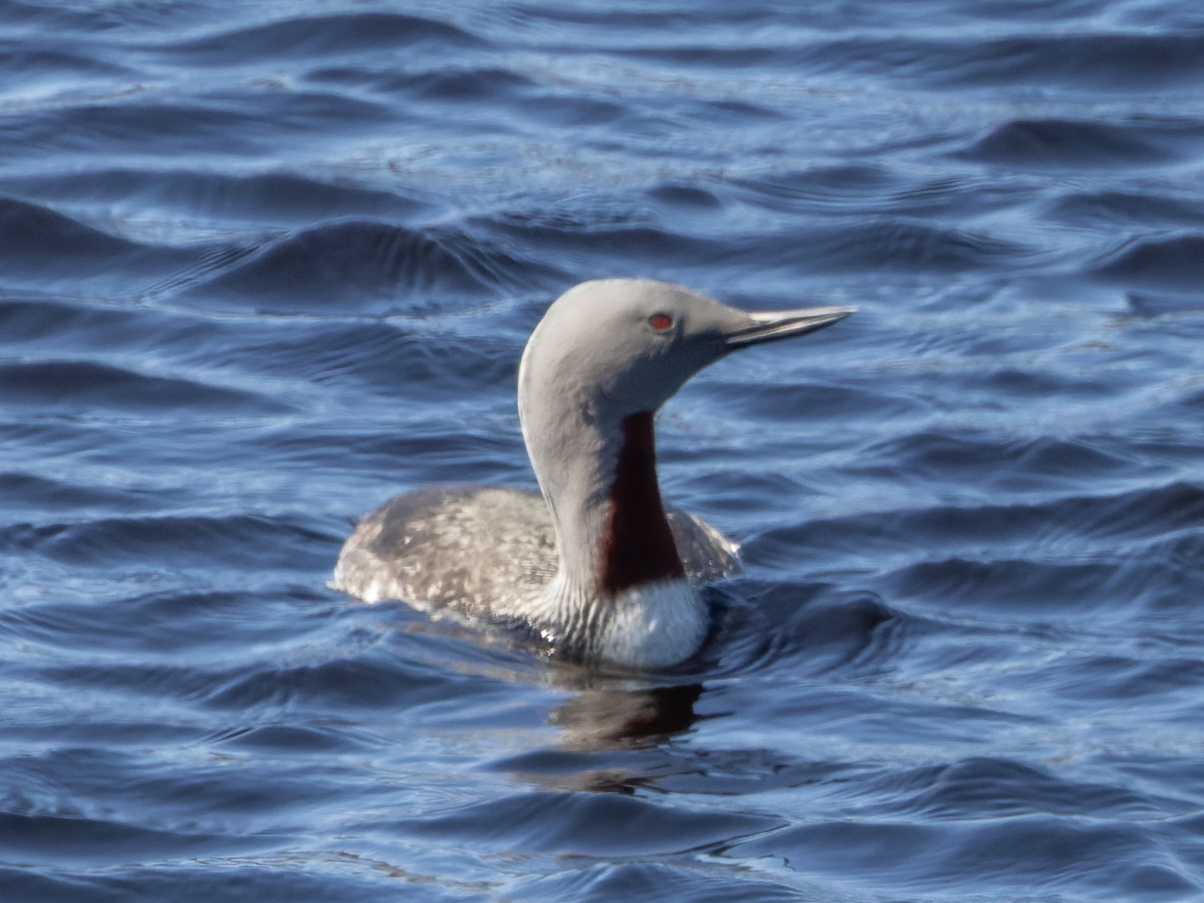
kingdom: Animalia
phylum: Chordata
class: Aves
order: Gaviiformes
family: Gaviidae
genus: Gavia
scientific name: Gavia stellata
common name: Red-throated loon
